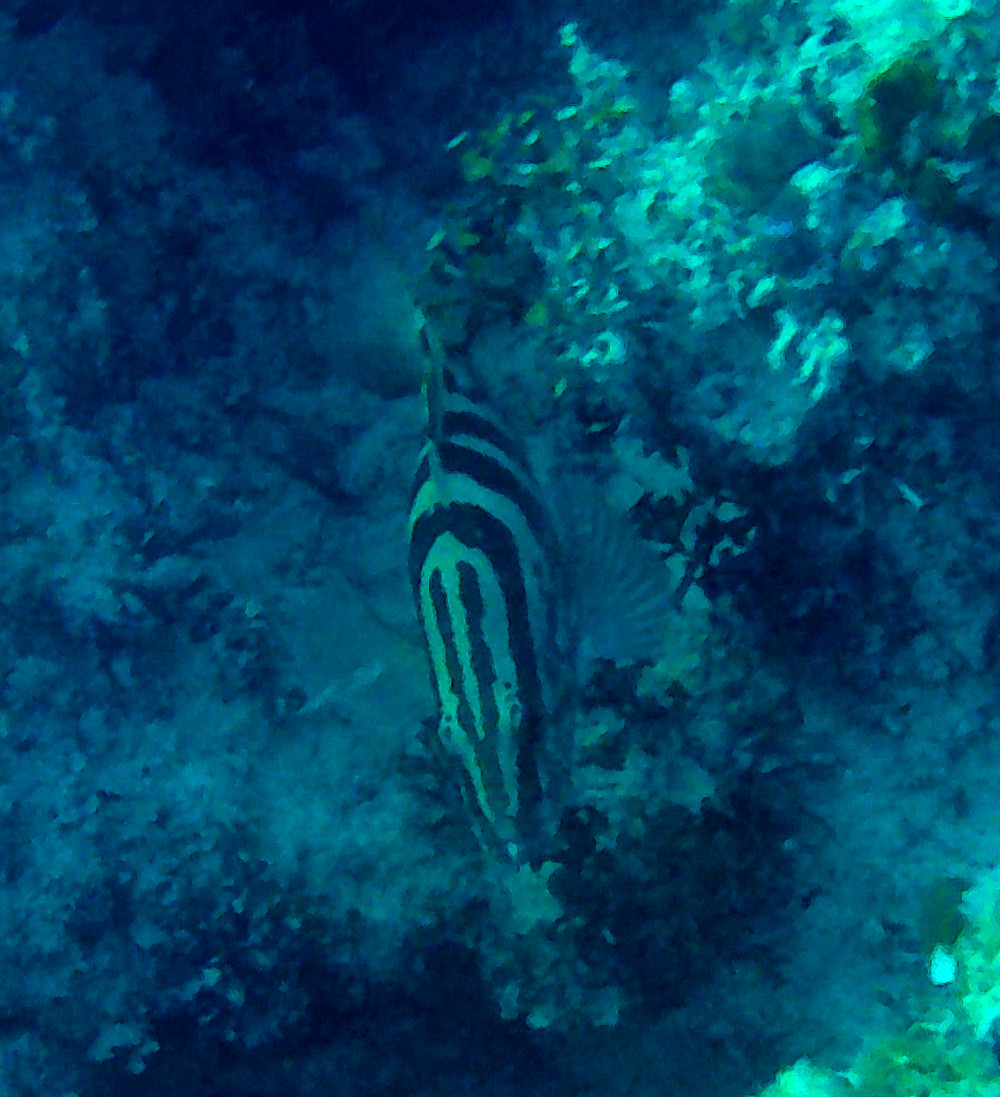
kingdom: Animalia
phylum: Chordata
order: Perciformes
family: Serranidae
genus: Epinephelus
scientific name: Epinephelus striatus
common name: Nassau grouper
